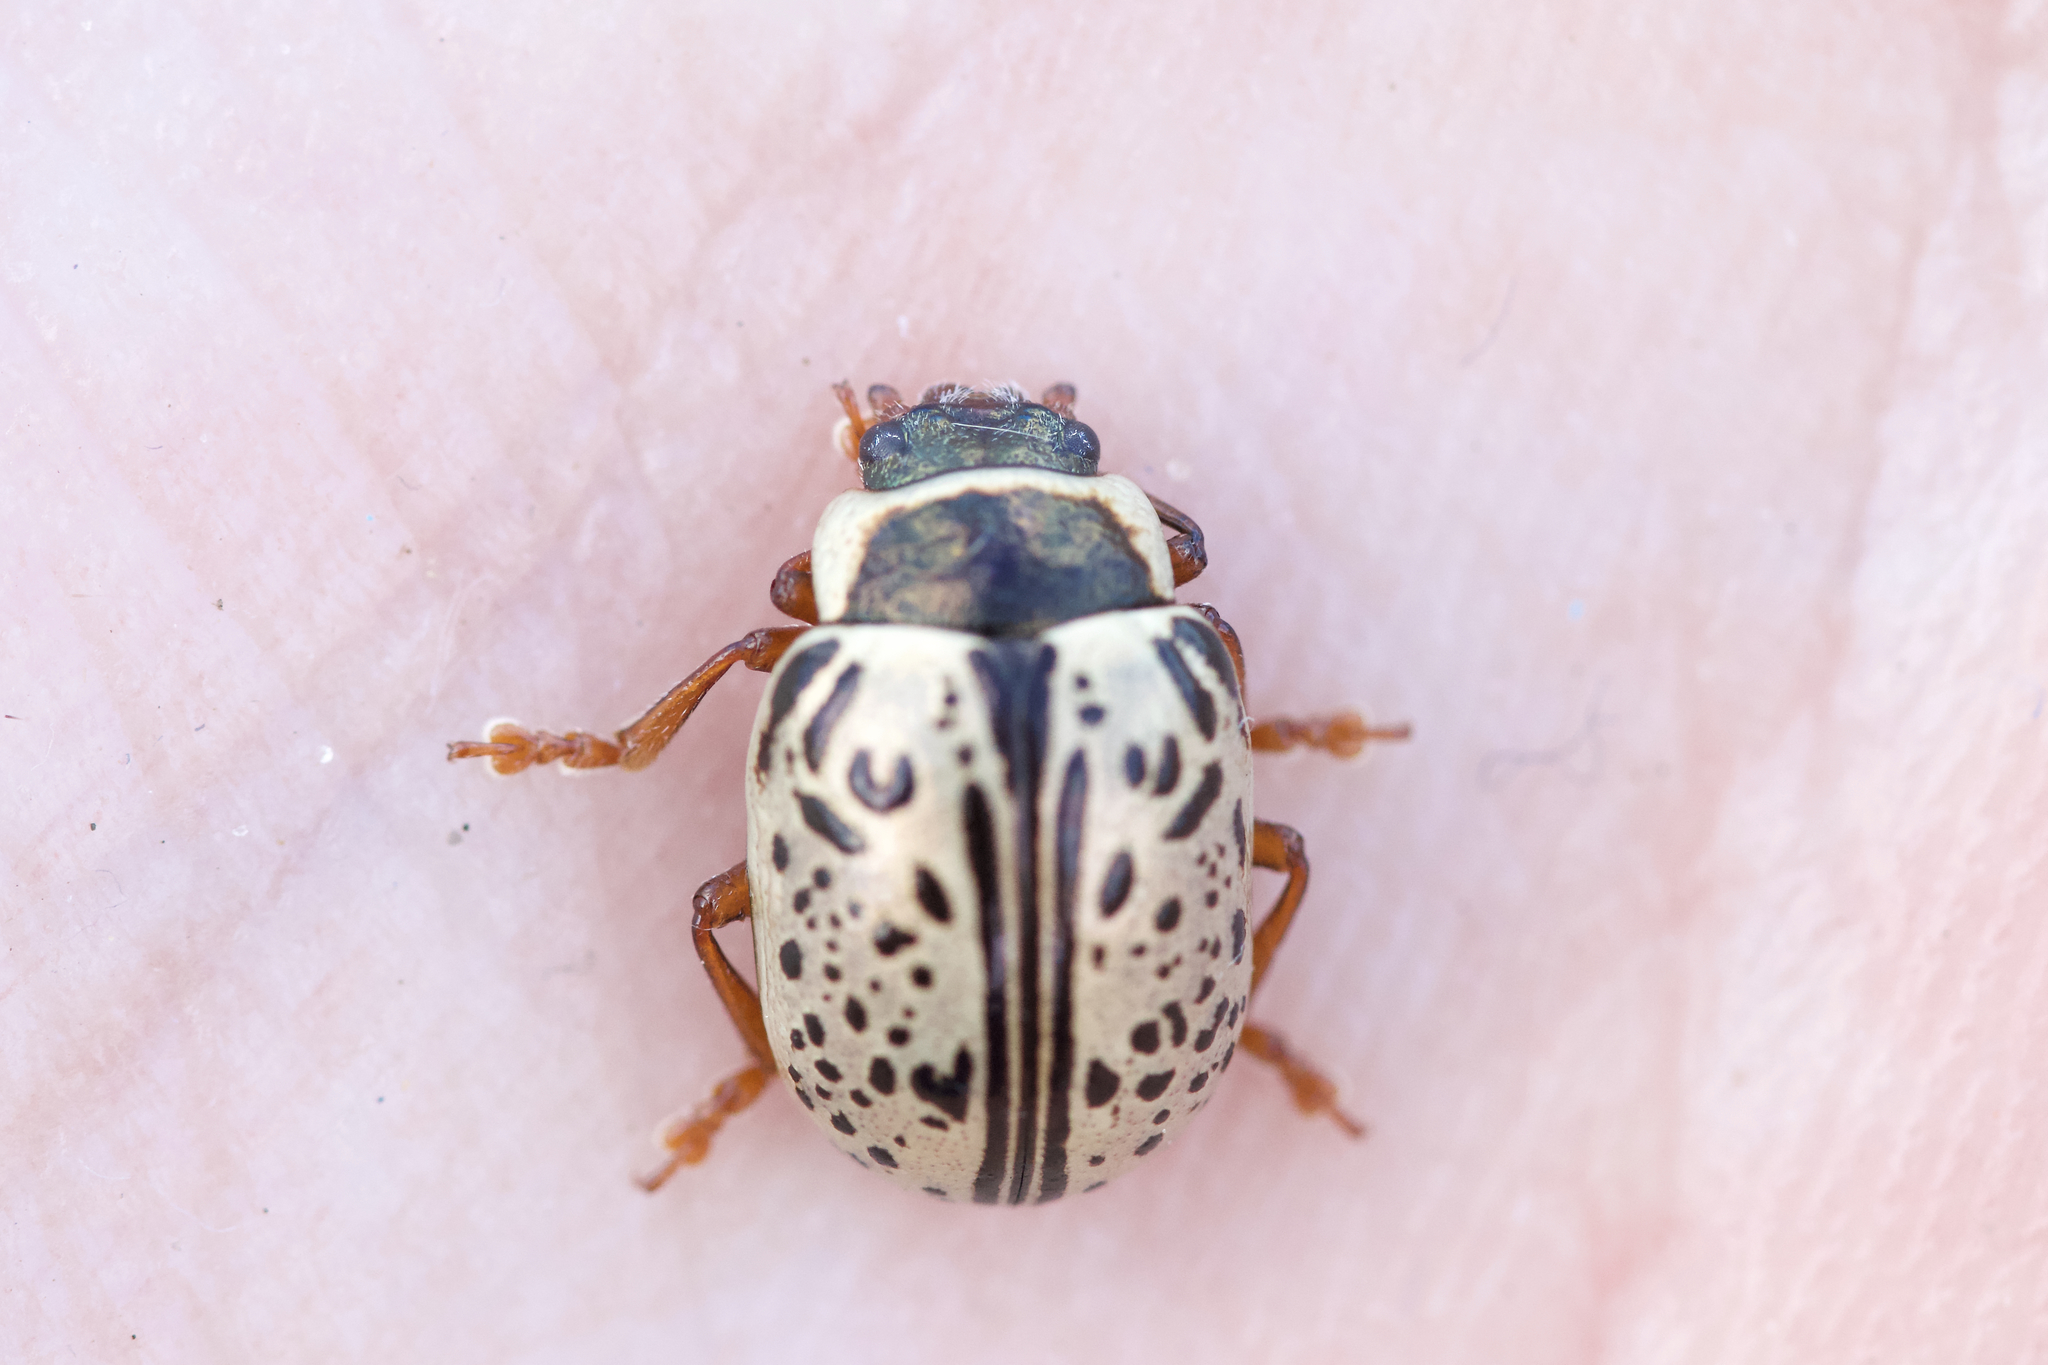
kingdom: Animalia
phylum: Arthropoda
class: Insecta
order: Coleoptera
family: Chrysomelidae
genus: Calligrapha
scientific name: Calligrapha multipunctata
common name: Common willow calligrapher beetle
